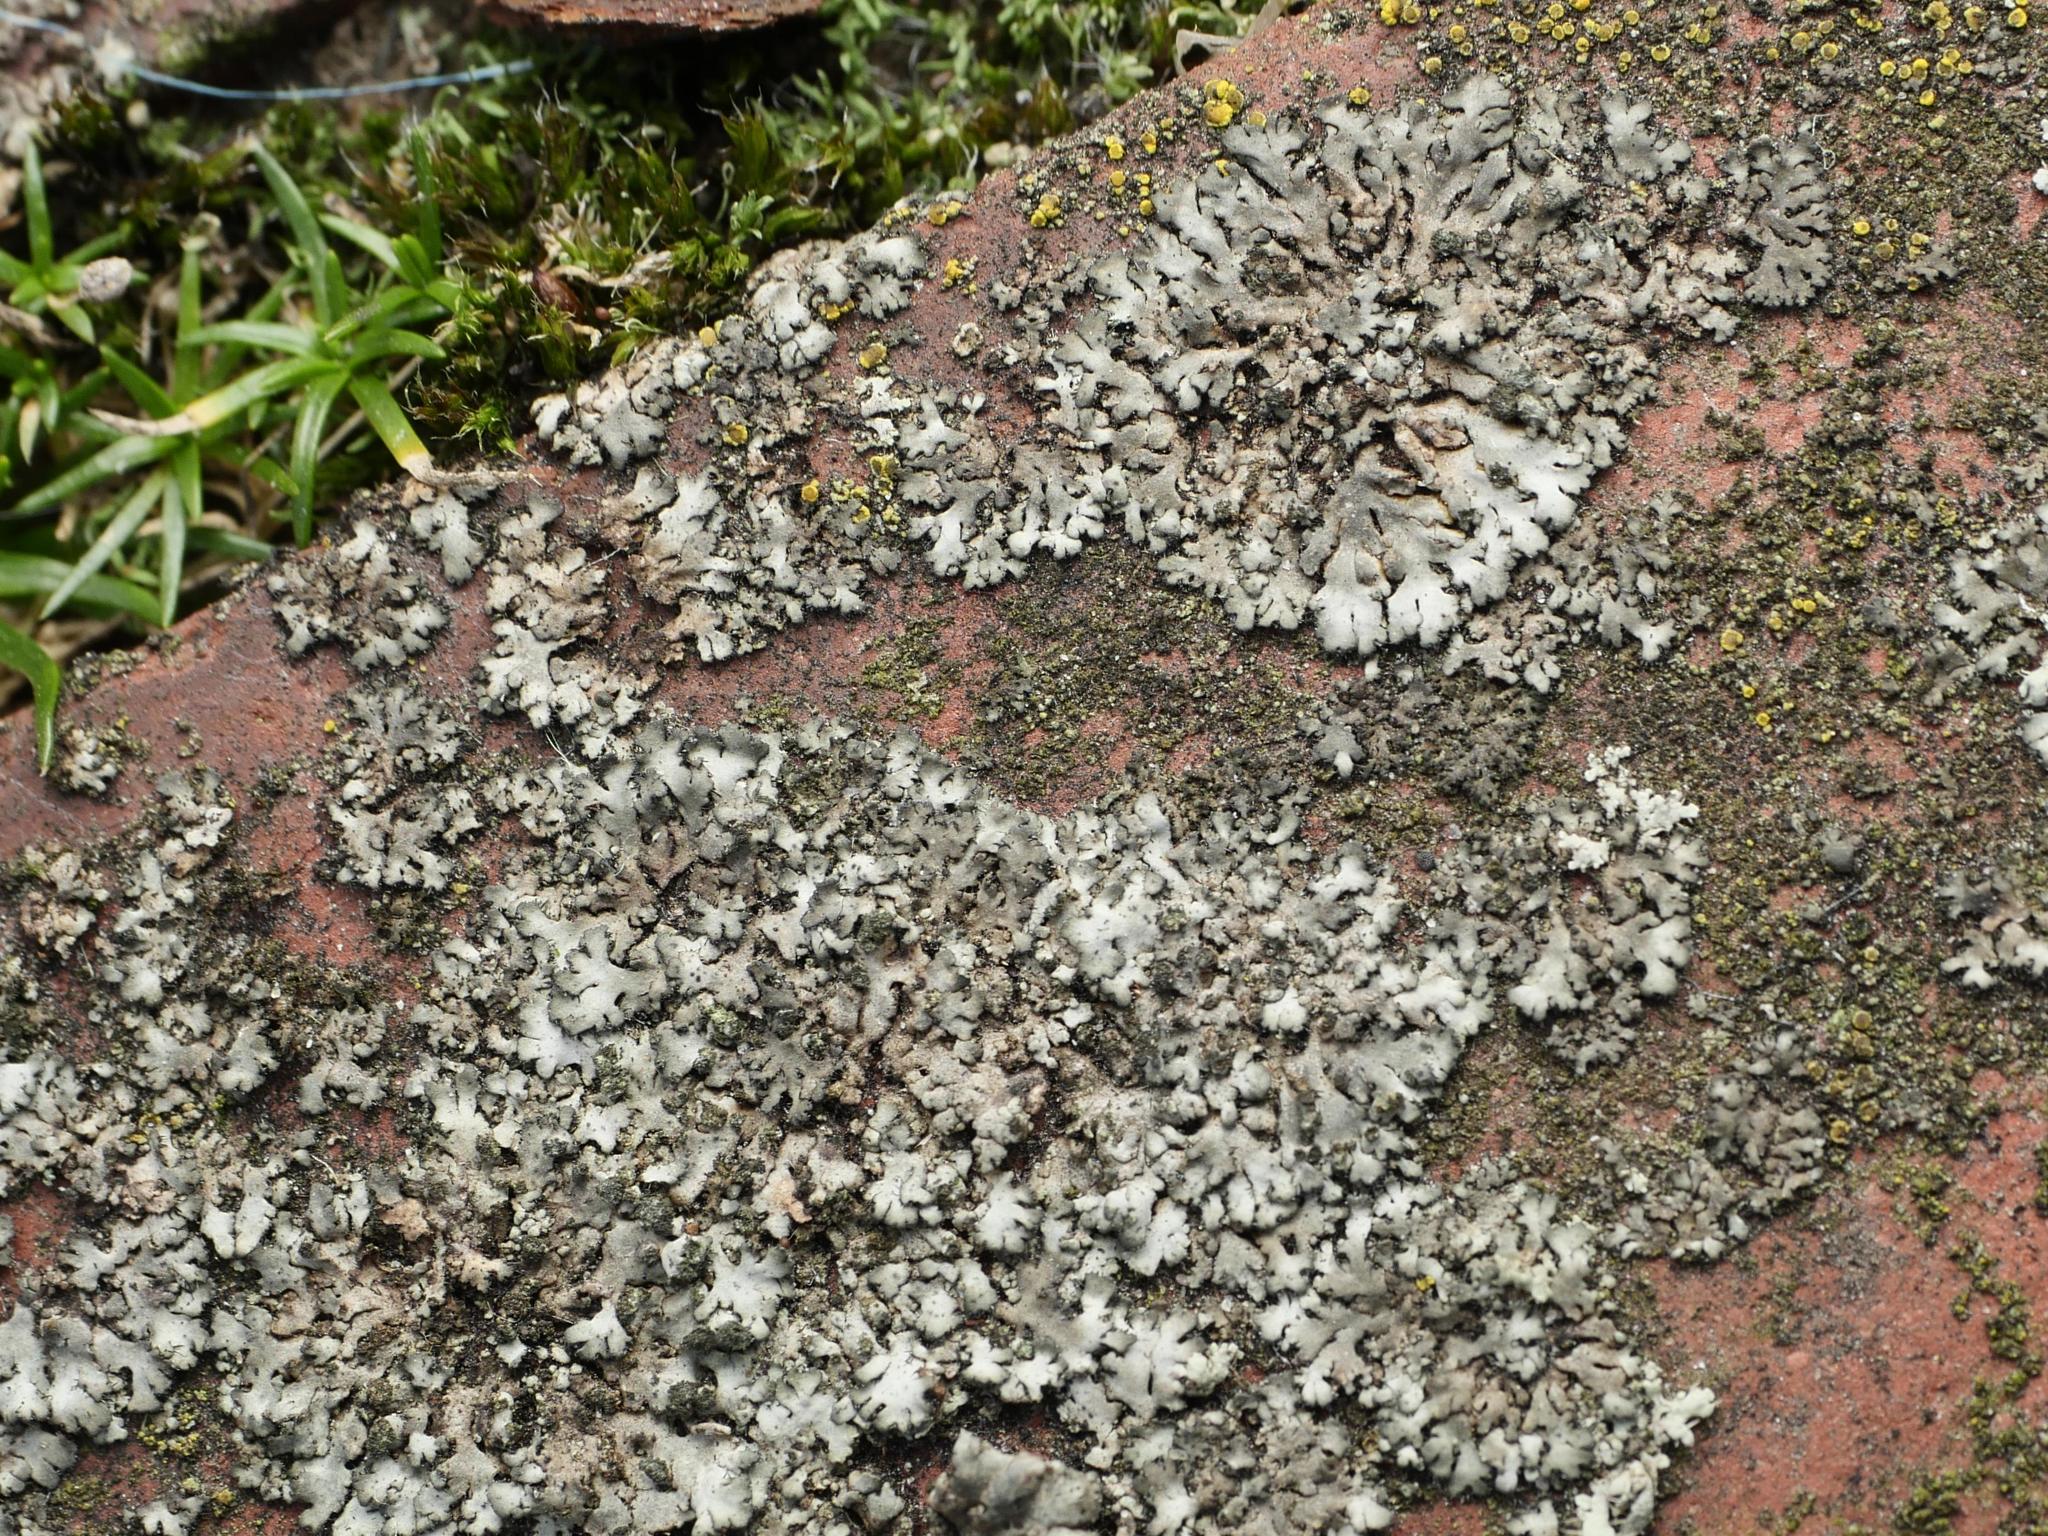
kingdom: Fungi
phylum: Ascomycota
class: Lecanoromycetes
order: Caliciales
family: Physciaceae
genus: Phaeophyscia
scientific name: Phaeophyscia orbicularis
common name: Mealy shadow lichen
